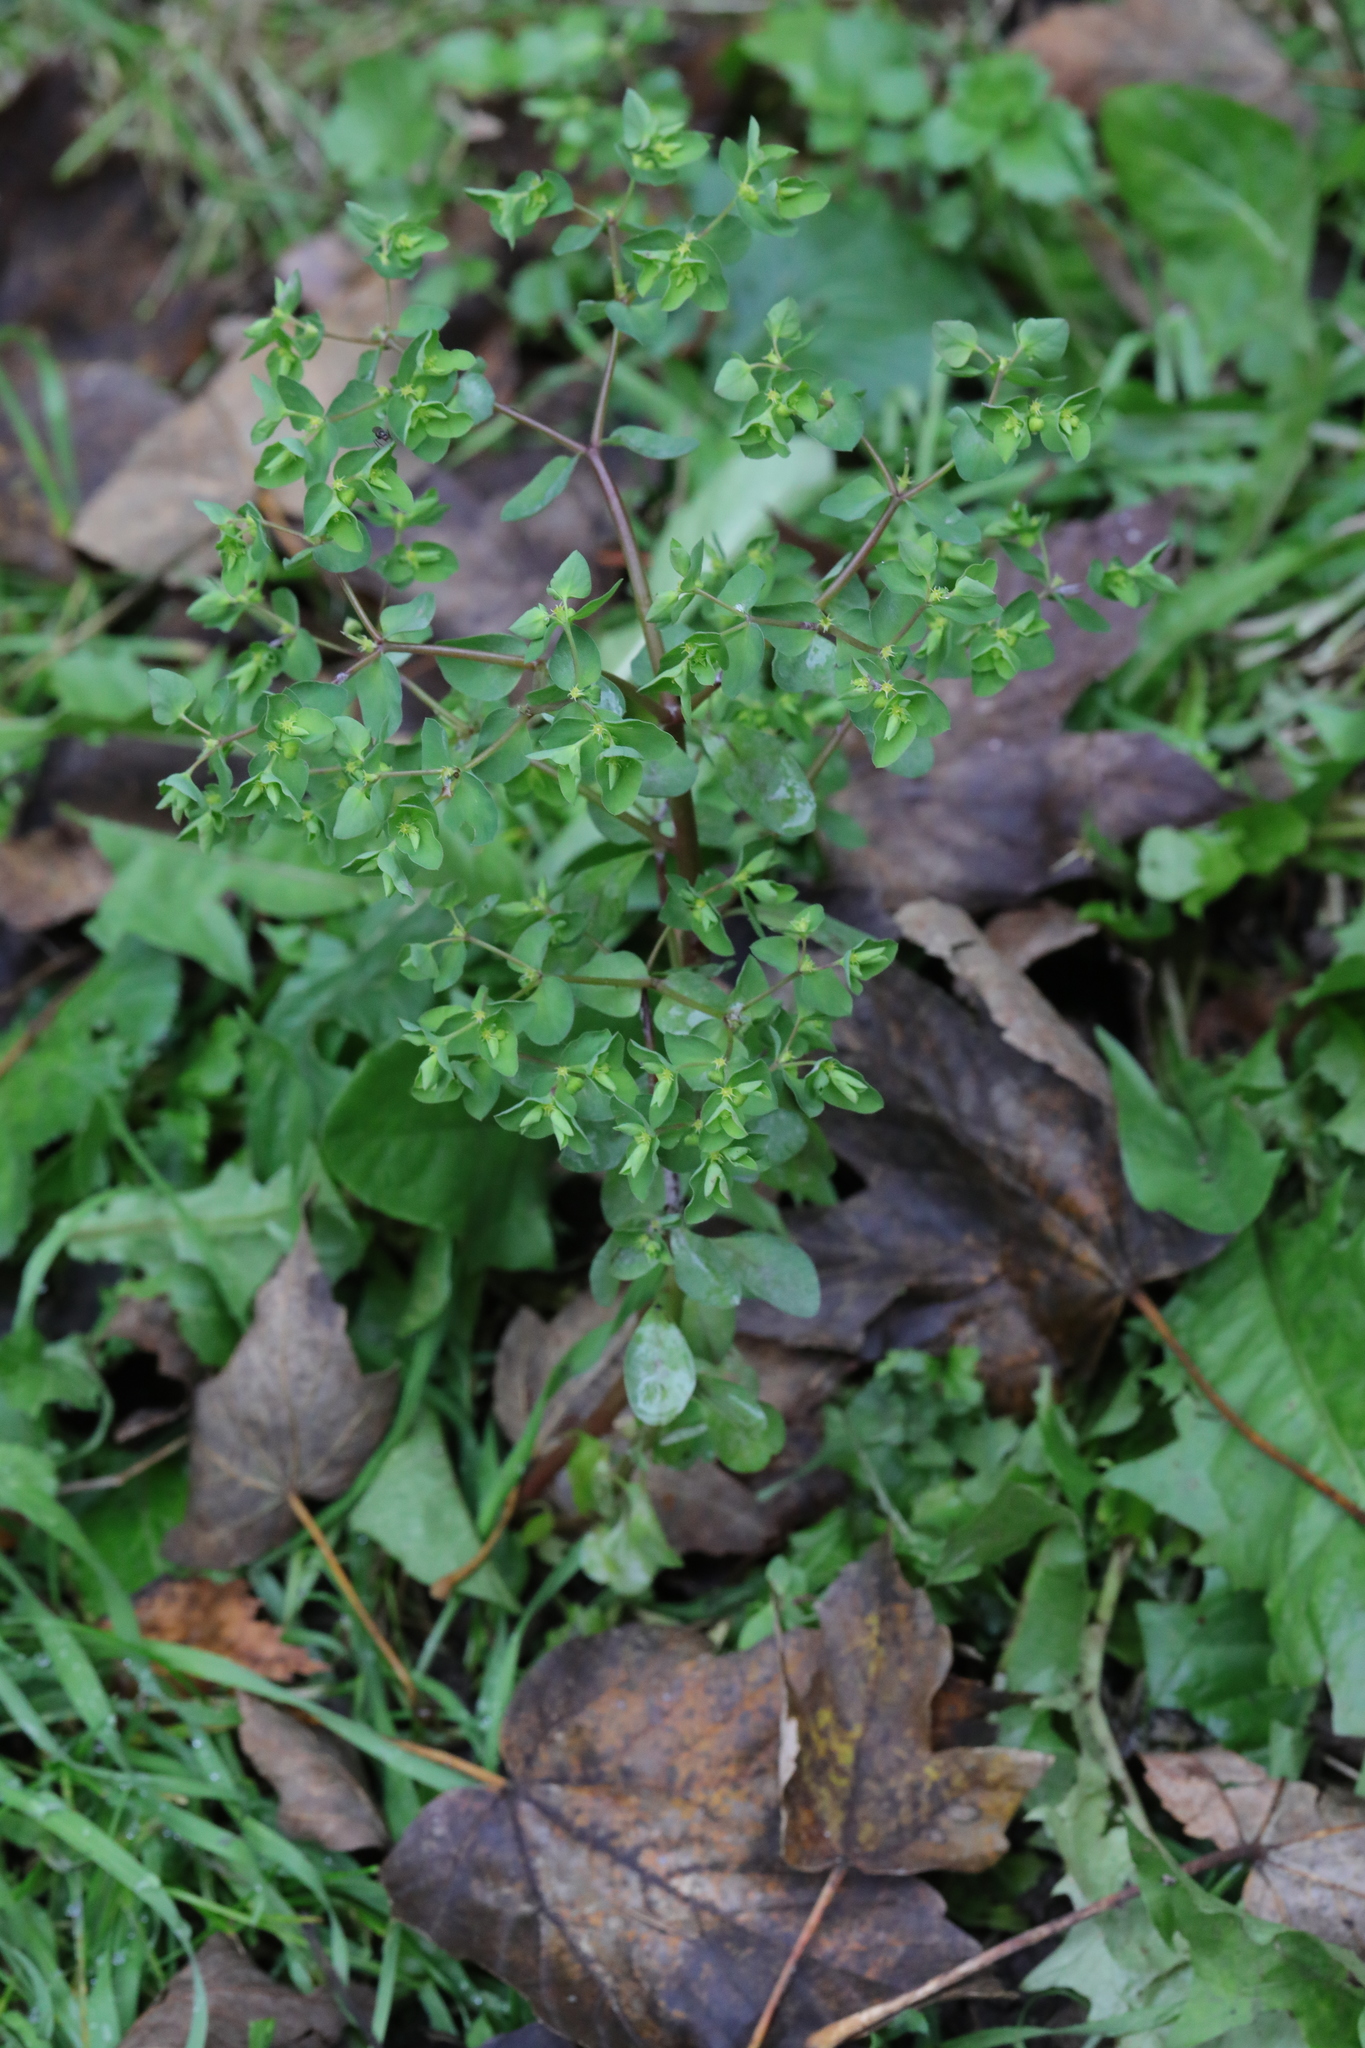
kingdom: Plantae
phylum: Tracheophyta
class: Magnoliopsida
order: Malpighiales
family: Euphorbiaceae
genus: Euphorbia
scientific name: Euphorbia peplus
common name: Petty spurge
